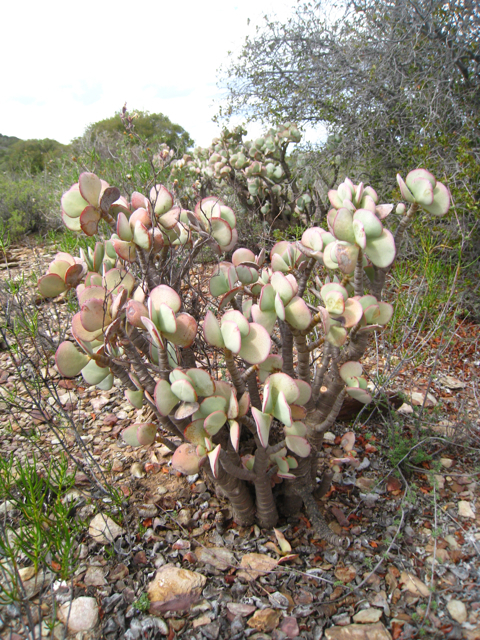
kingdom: Plantae
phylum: Tracheophyta
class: Magnoliopsida
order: Saxifragales
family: Crassulaceae
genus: Crassula
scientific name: Crassula arborescens
